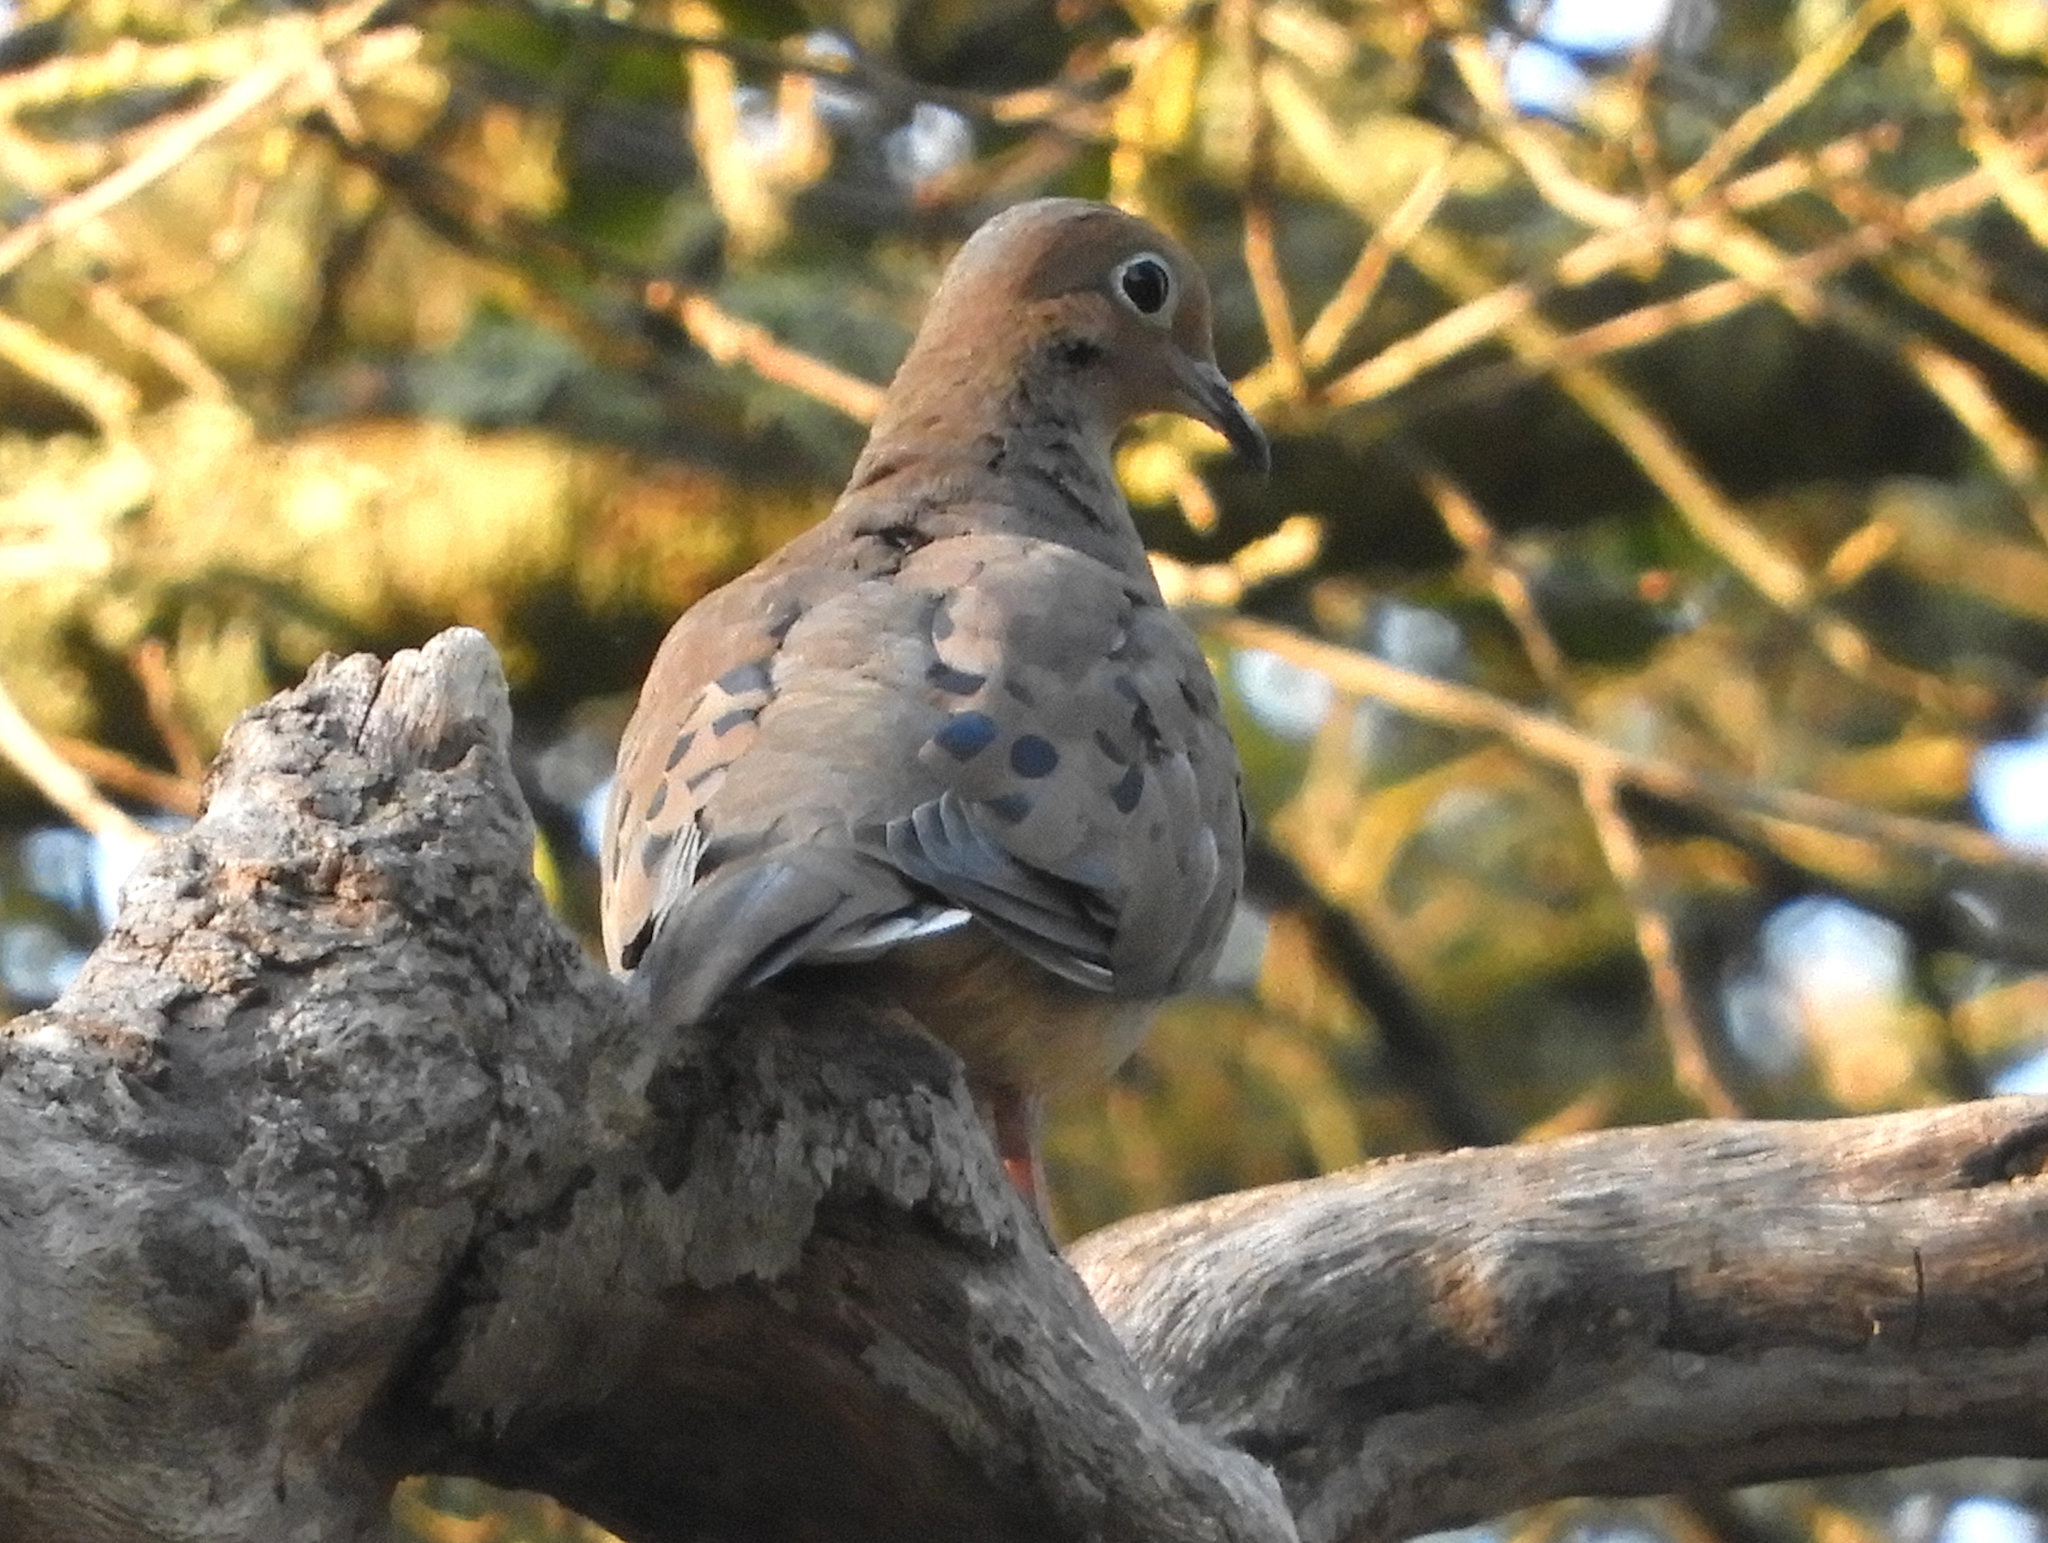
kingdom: Animalia
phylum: Chordata
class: Aves
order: Columbiformes
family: Columbidae
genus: Zenaida
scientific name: Zenaida macroura
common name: Mourning dove
